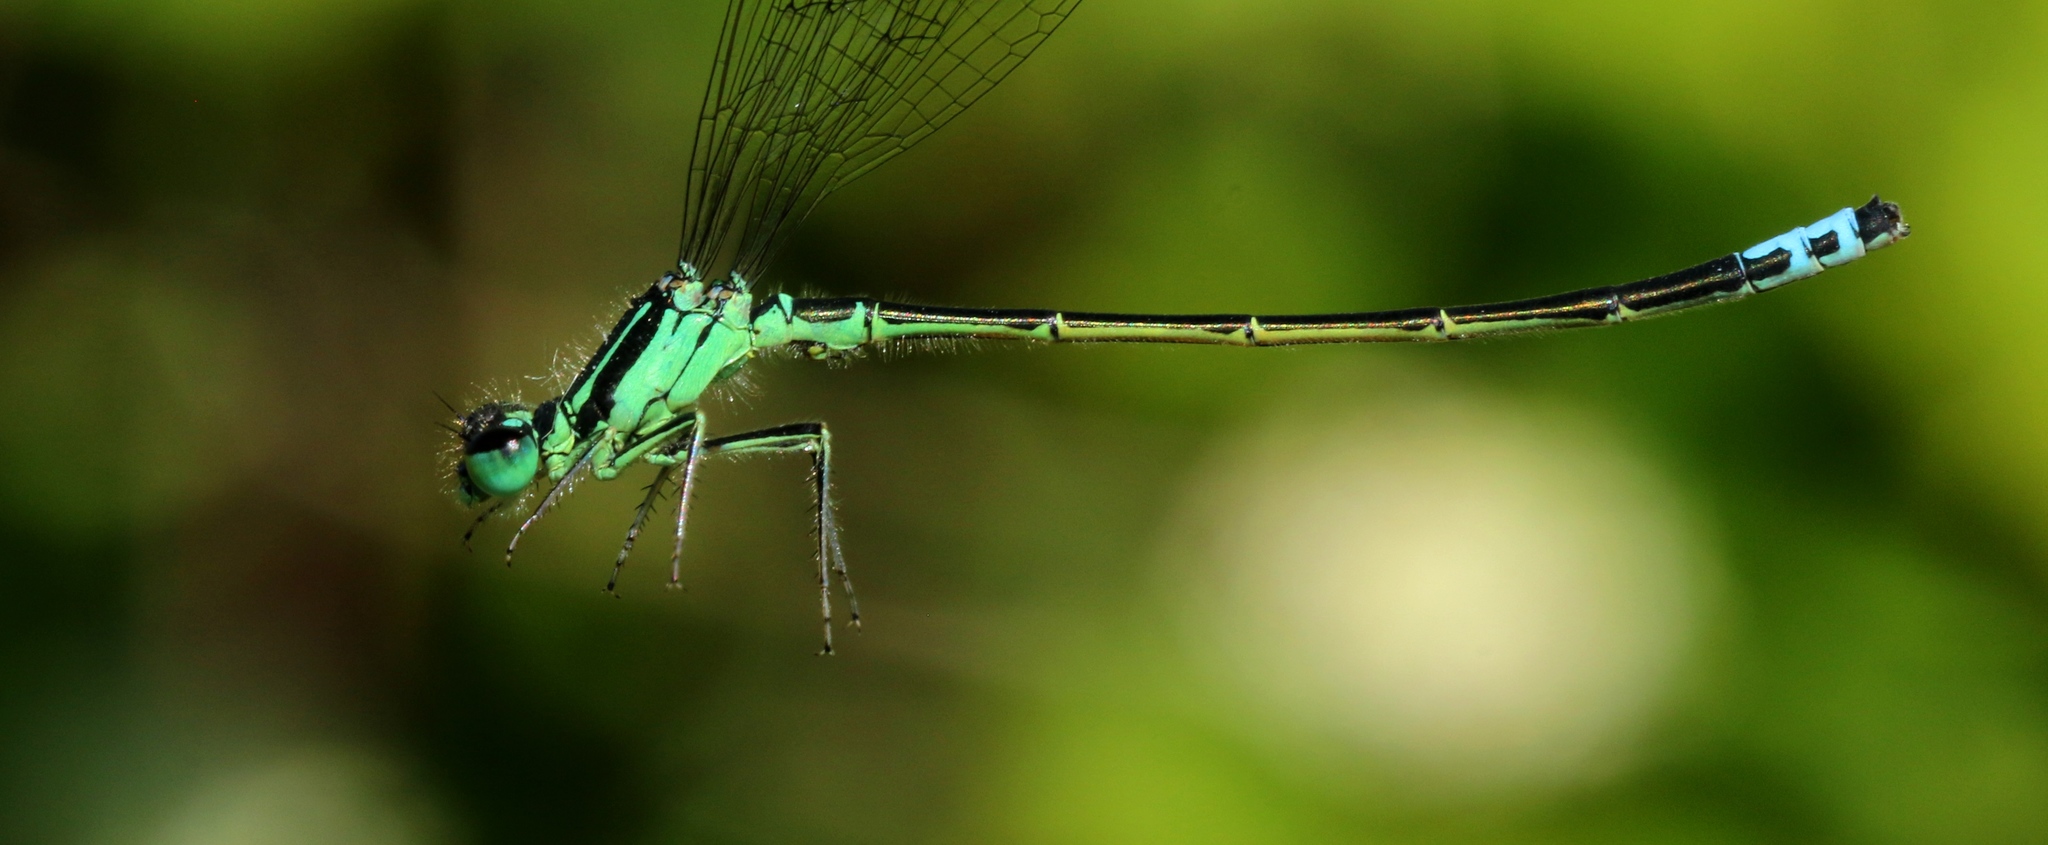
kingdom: Animalia
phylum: Arthropoda
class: Insecta
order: Odonata
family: Coenagrionidae
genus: Ischnura
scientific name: Ischnura verticalis
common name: Eastern forktail
